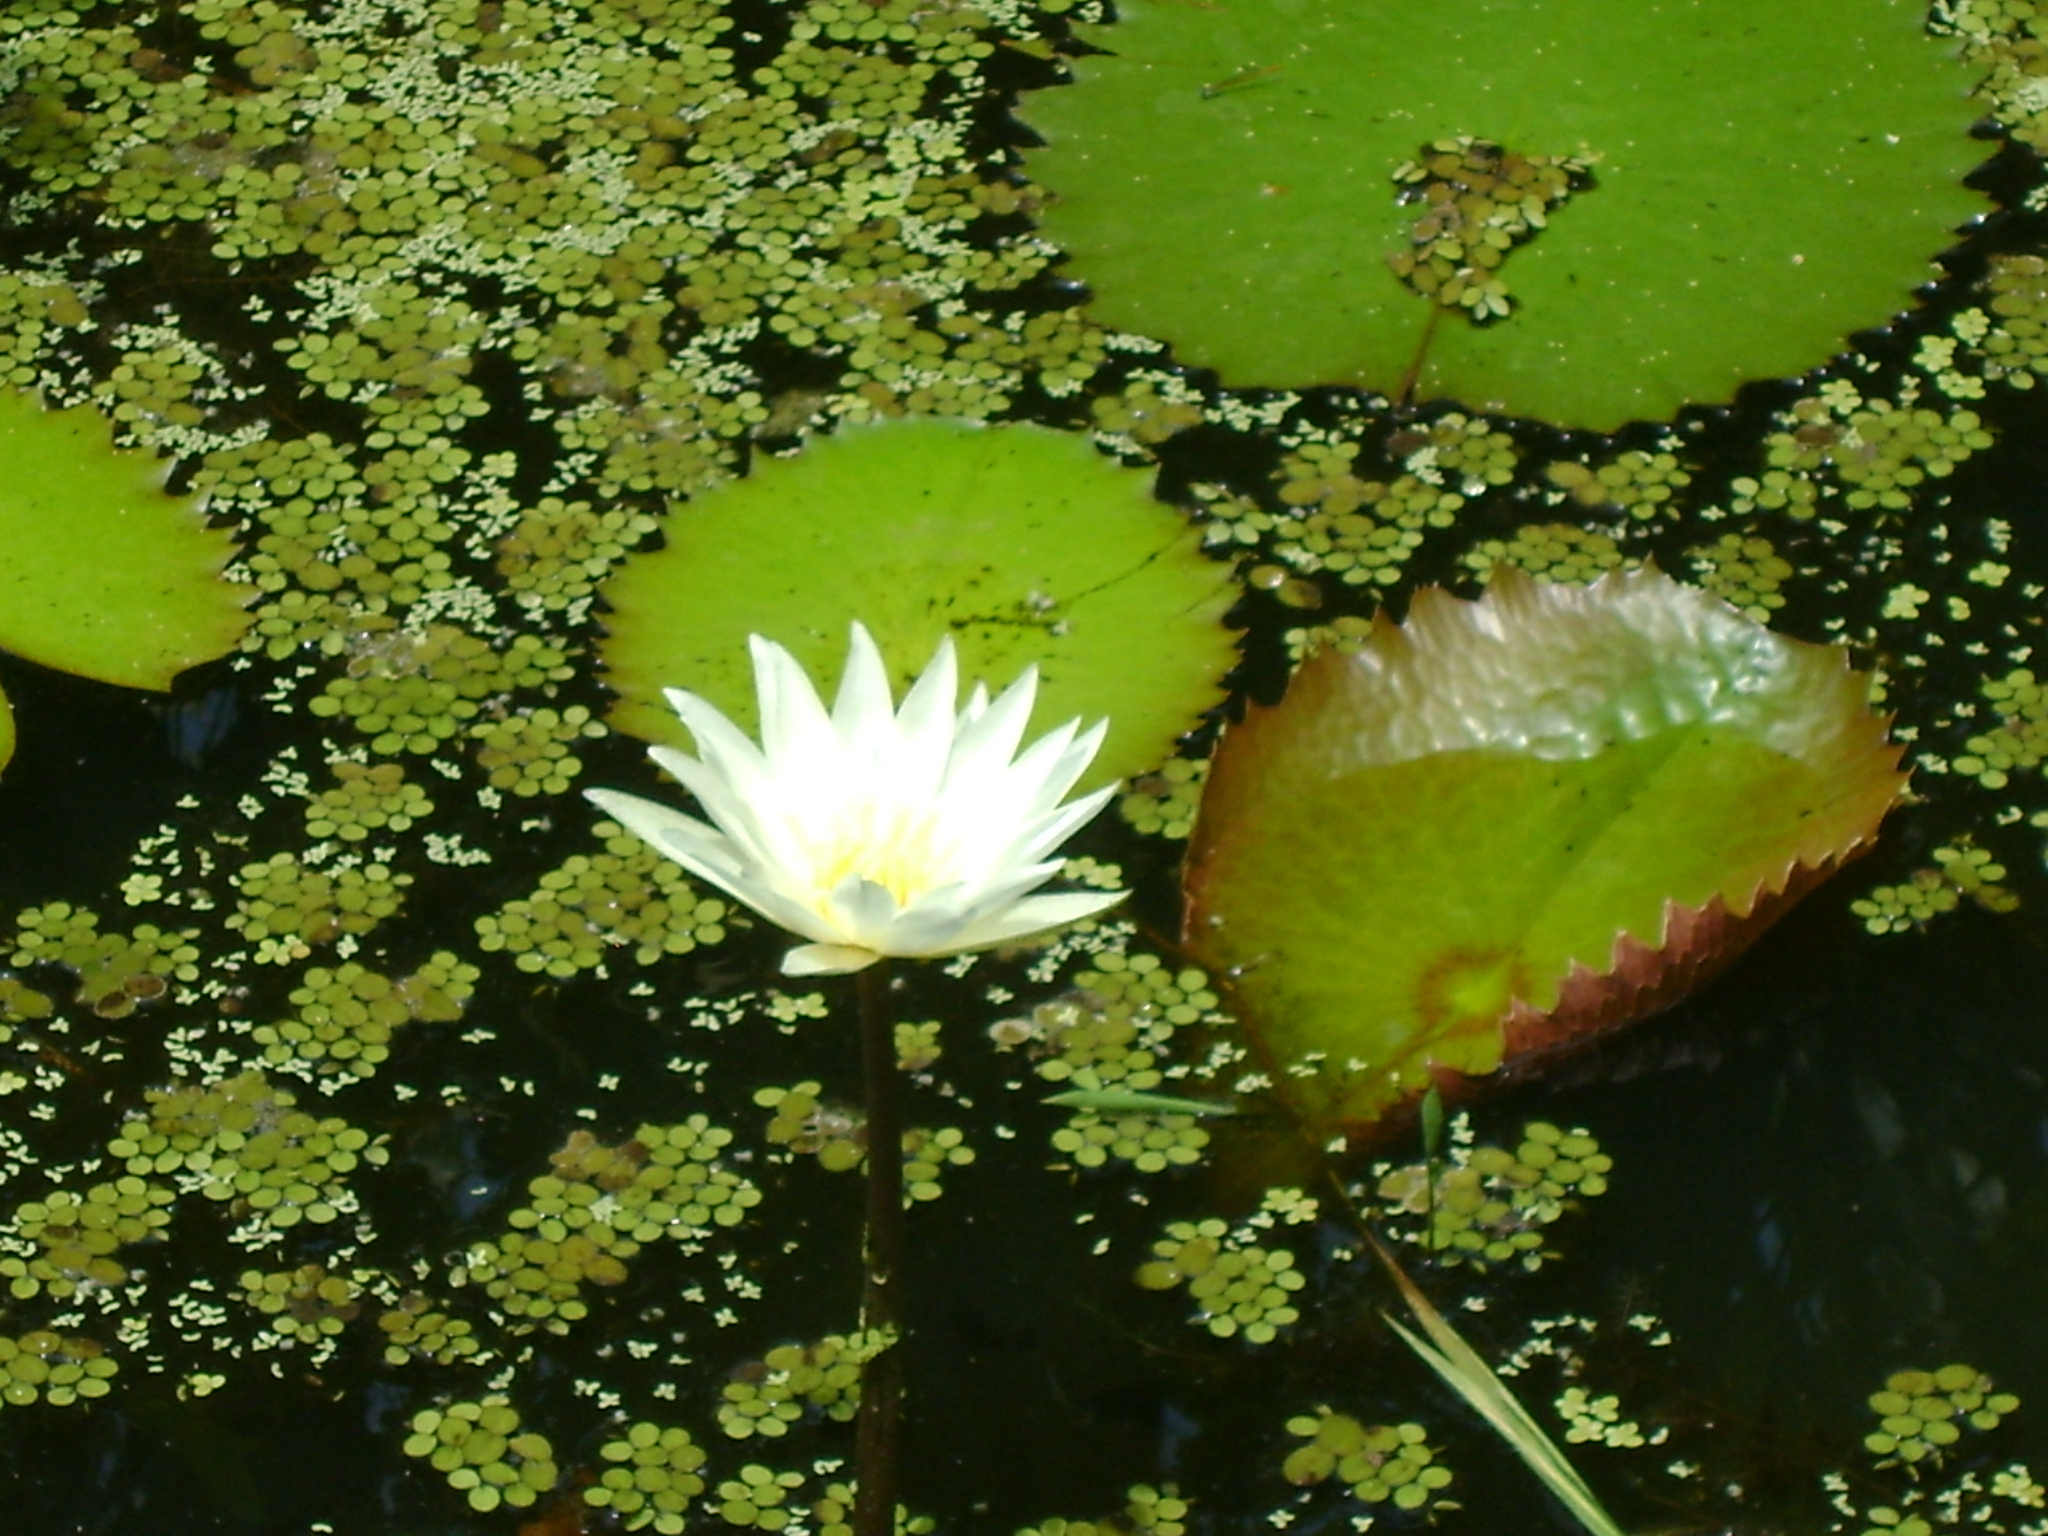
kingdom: Plantae
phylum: Tracheophyta
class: Magnoliopsida
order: Nymphaeales
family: Nymphaeaceae
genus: Nymphaea
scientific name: Nymphaea ampla
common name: Dotleaf waterlily
